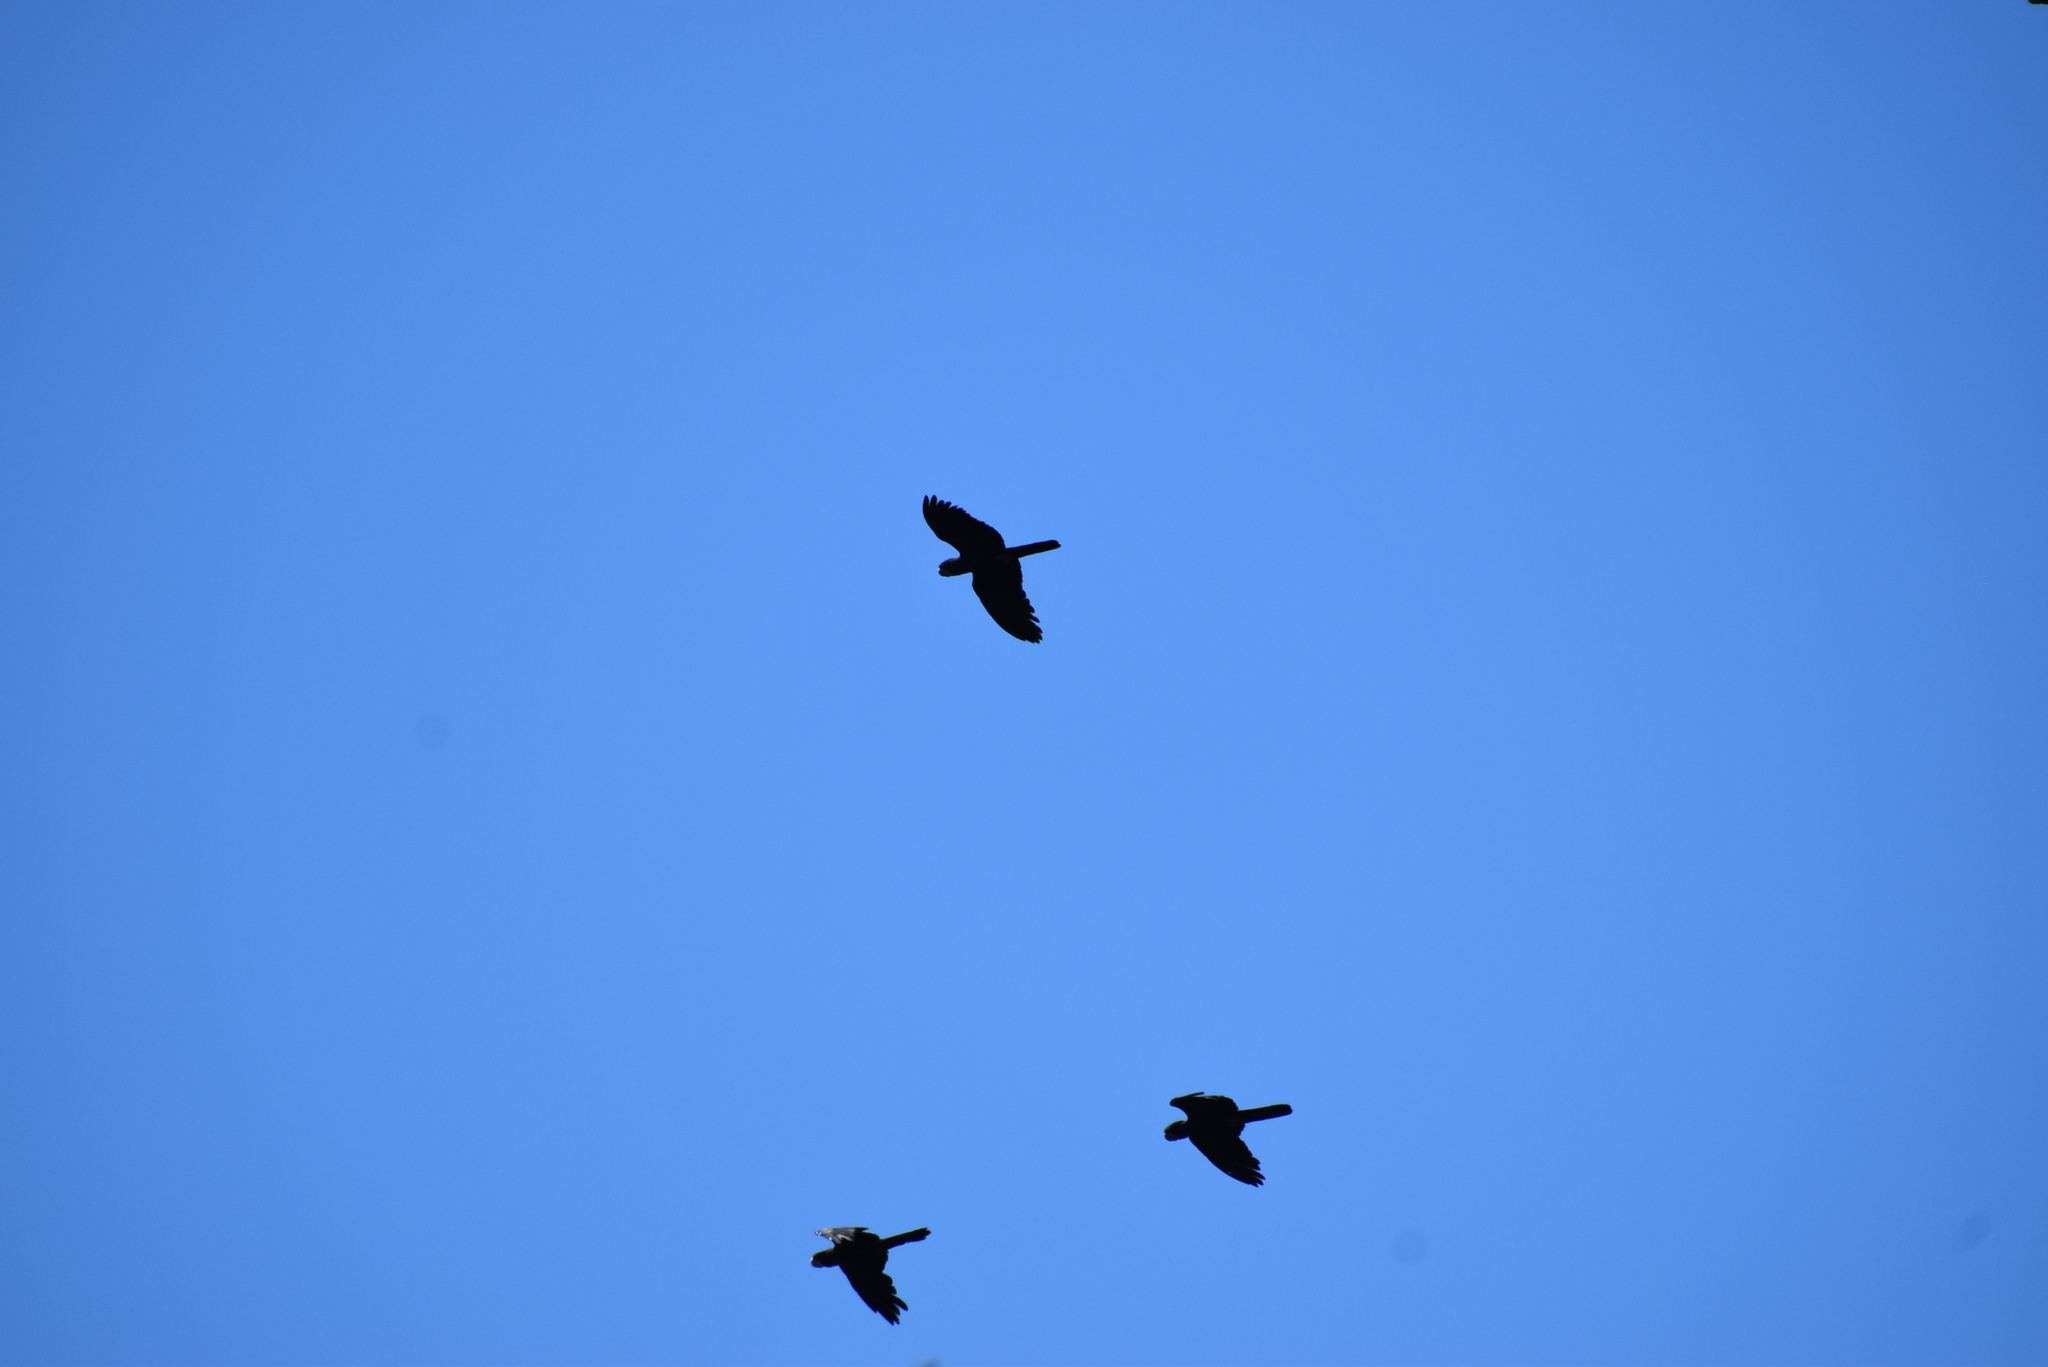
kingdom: Animalia
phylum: Chordata
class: Aves
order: Psittaciformes
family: Psittacidae
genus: Calyptorhynchus
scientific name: Calyptorhynchus banksii
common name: Red-tailed black cockatoo
